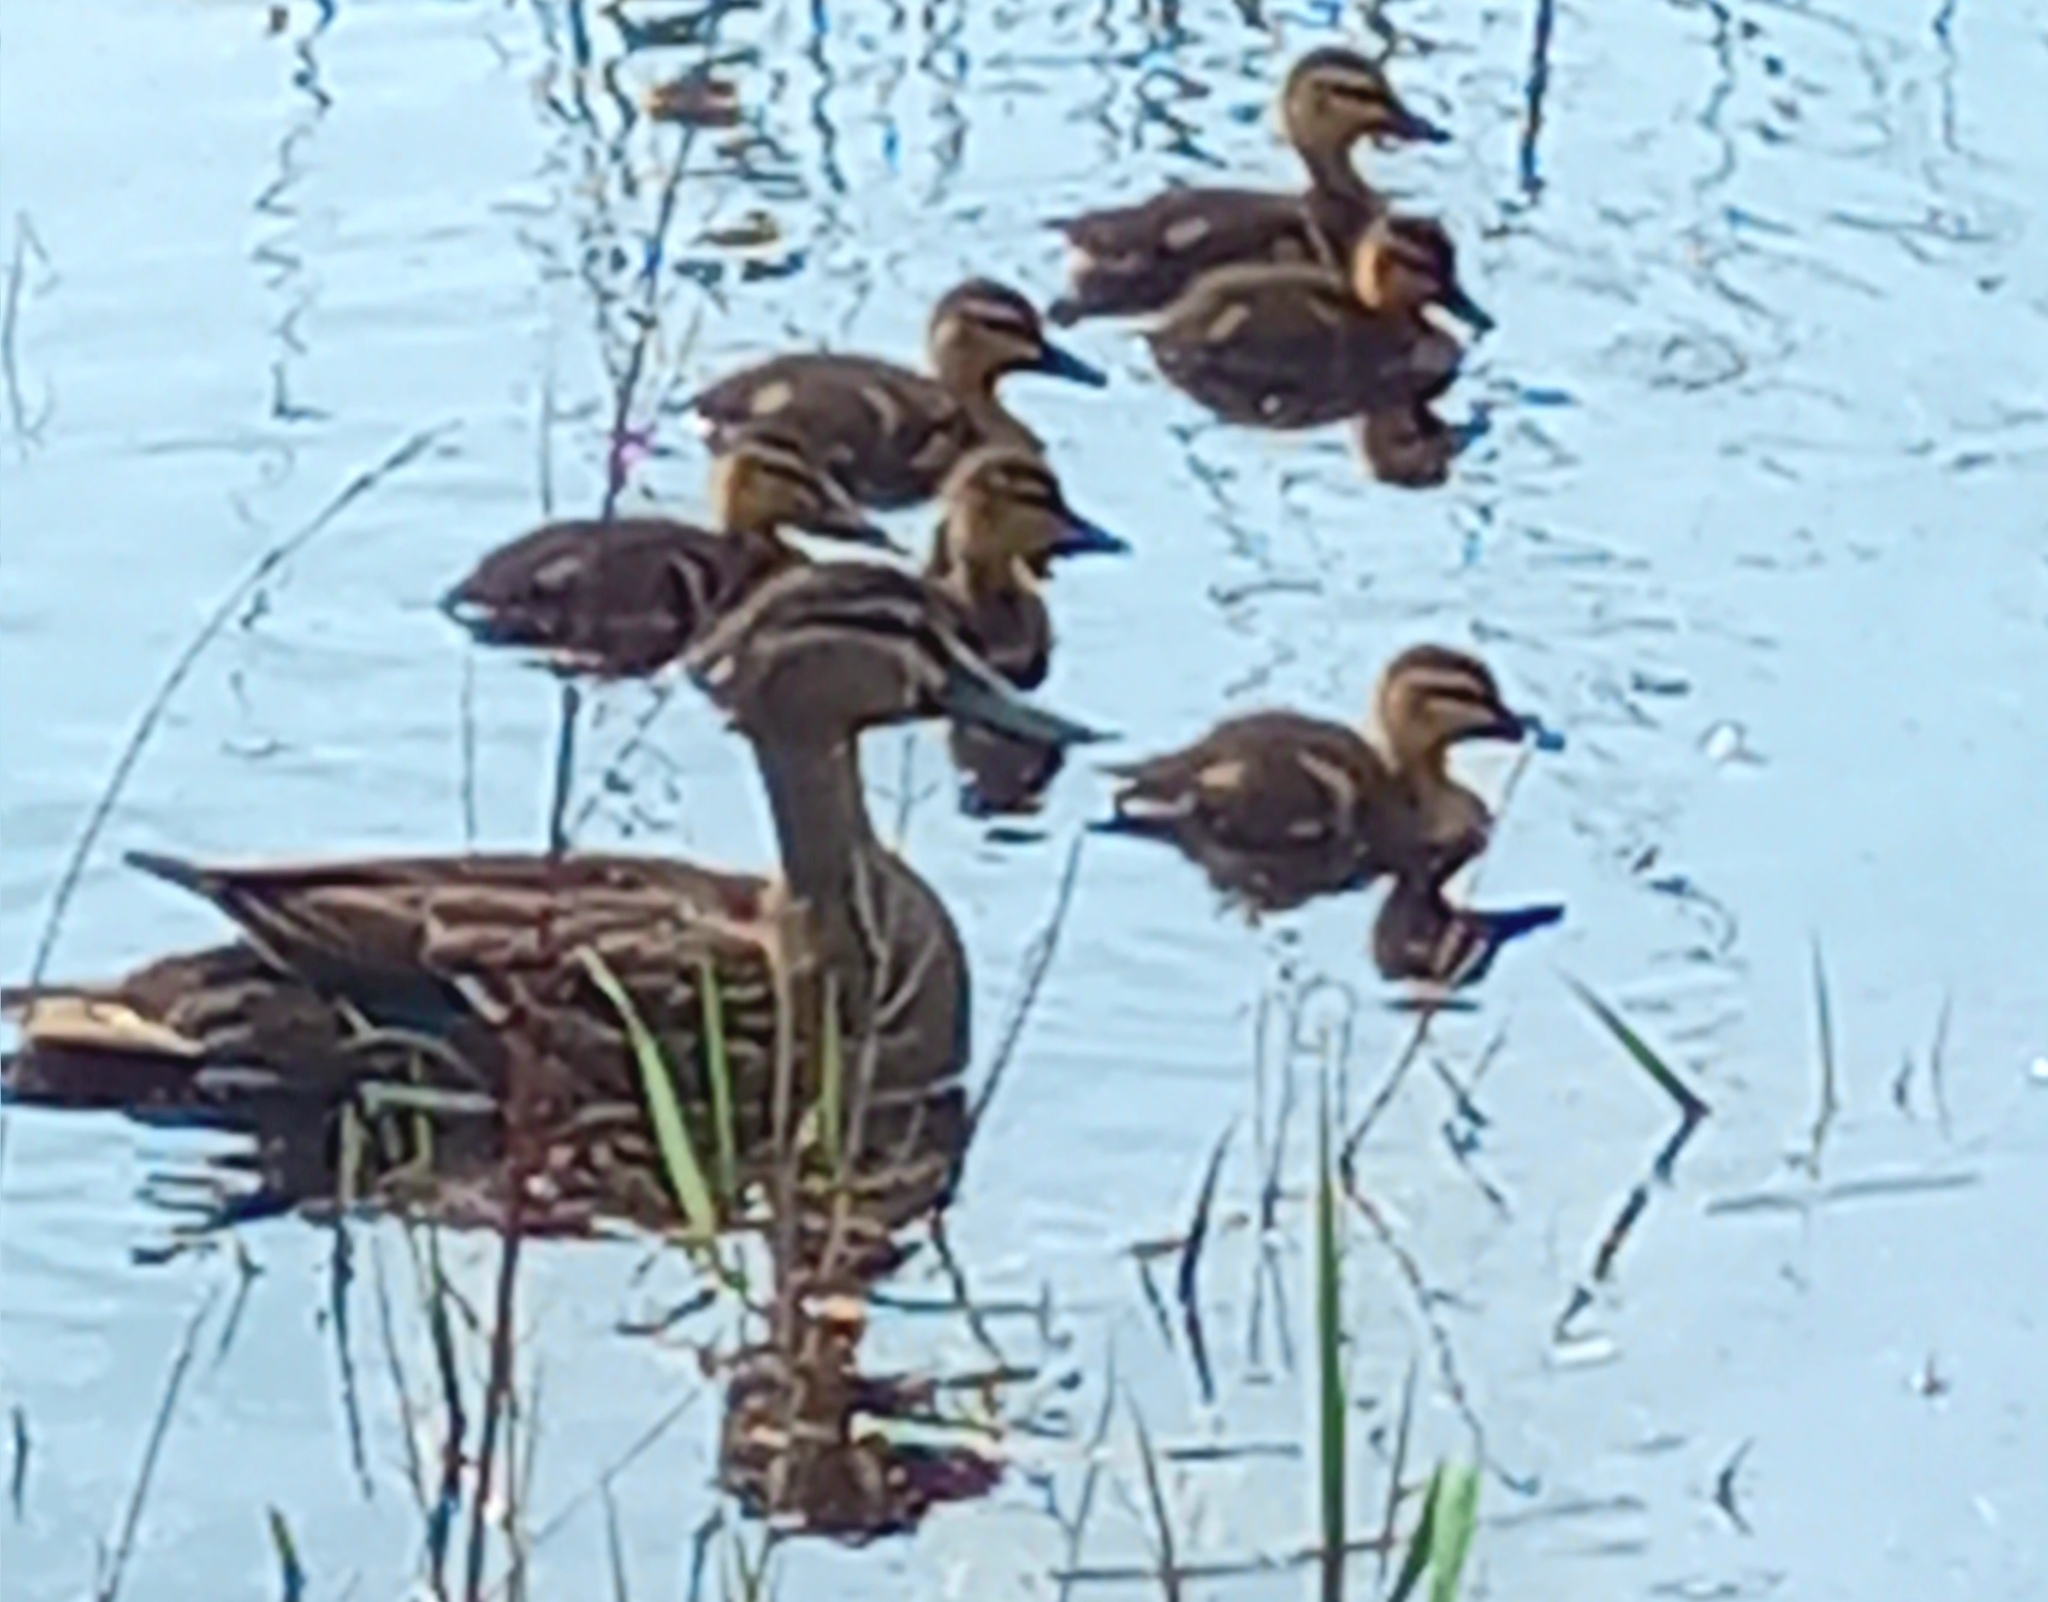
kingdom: Animalia
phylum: Chordata
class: Aves
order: Anseriformes
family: Anatidae
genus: Anas
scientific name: Anas platyrhynchos
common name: Mallard
